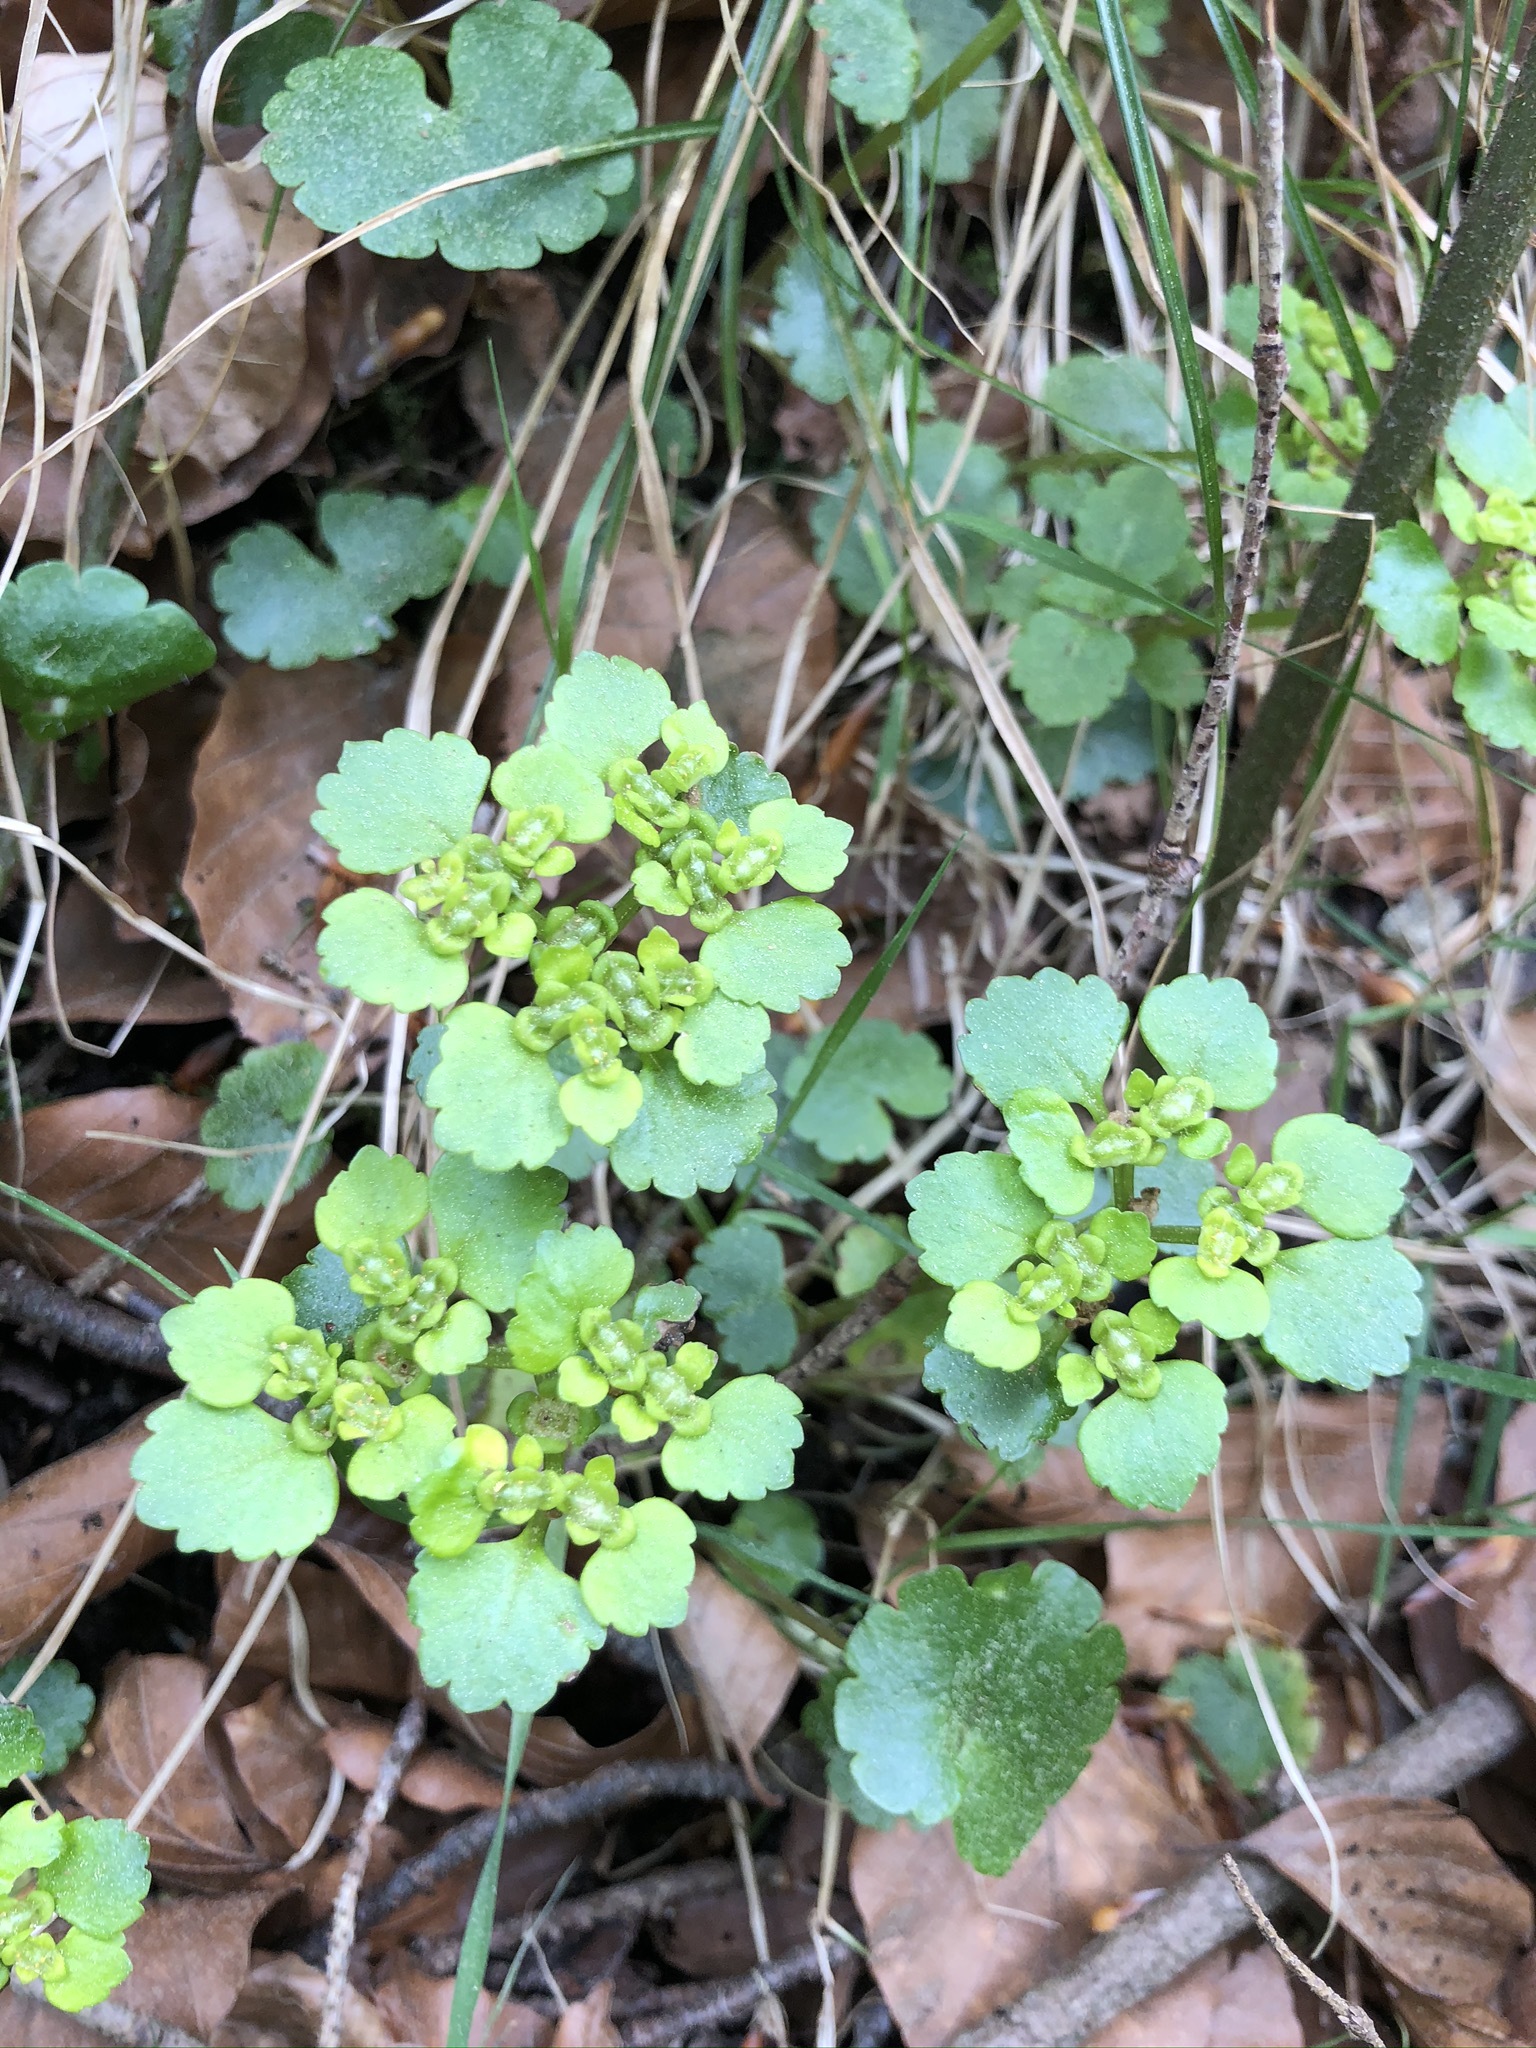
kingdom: Plantae
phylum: Tracheophyta
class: Magnoliopsida
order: Saxifragales
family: Saxifragaceae
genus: Chrysosplenium
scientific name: Chrysosplenium alternifolium
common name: Alternate-leaved golden-saxifrage
